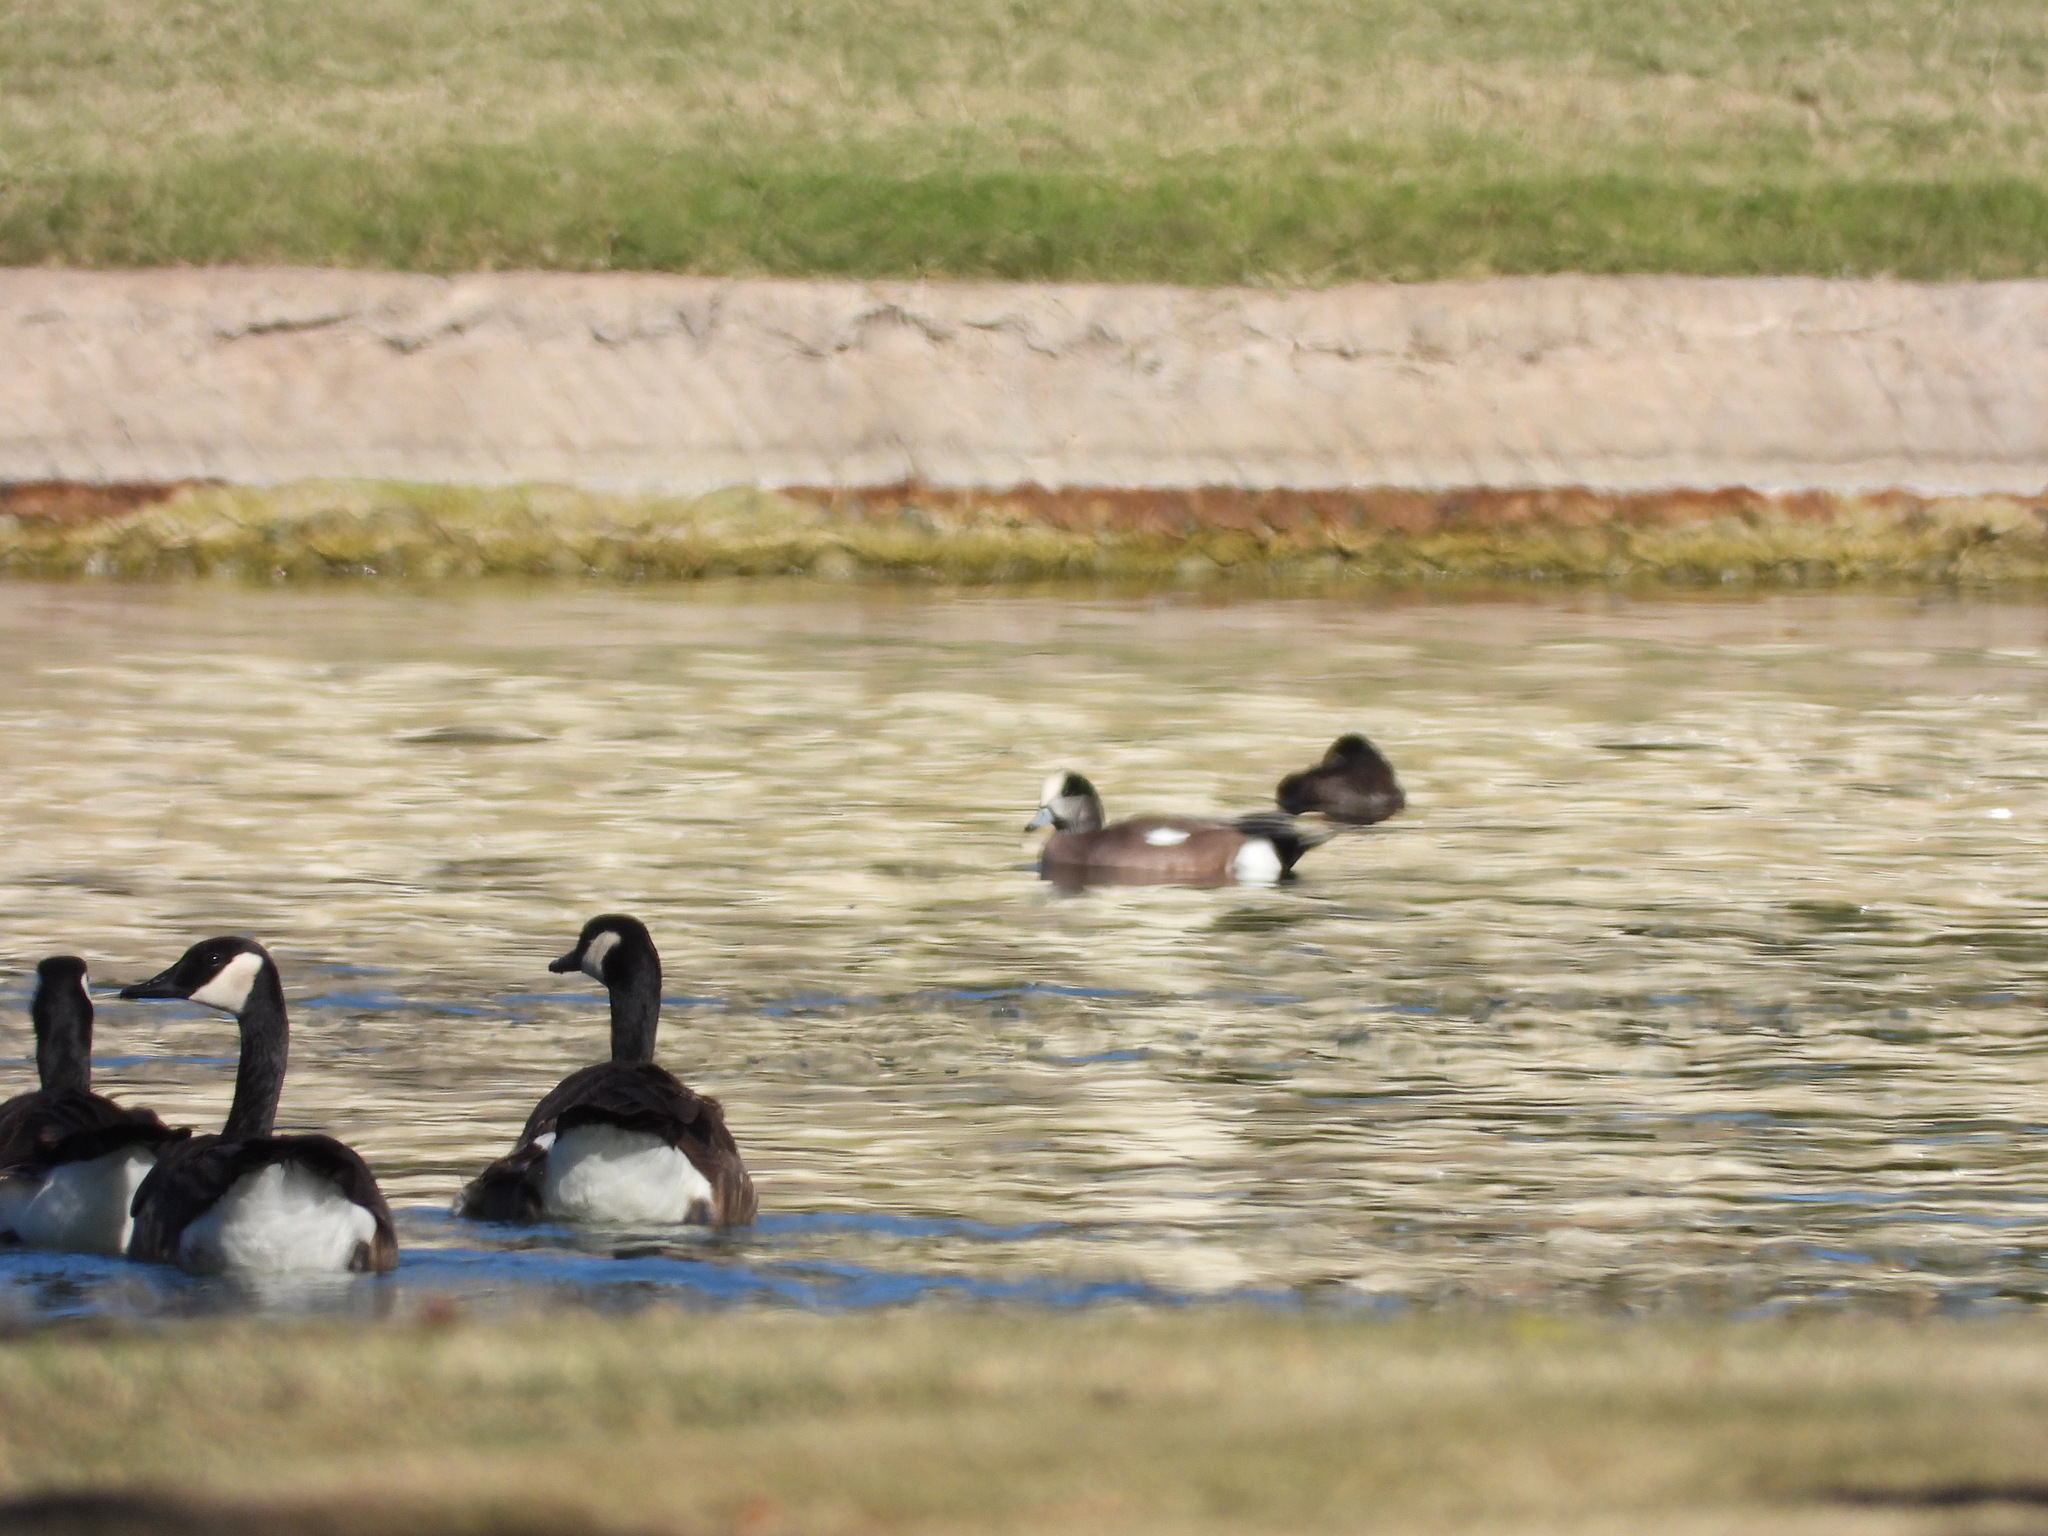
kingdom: Animalia
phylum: Chordata
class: Aves
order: Anseriformes
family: Anatidae
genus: Branta
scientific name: Branta canadensis
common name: Canada goose
